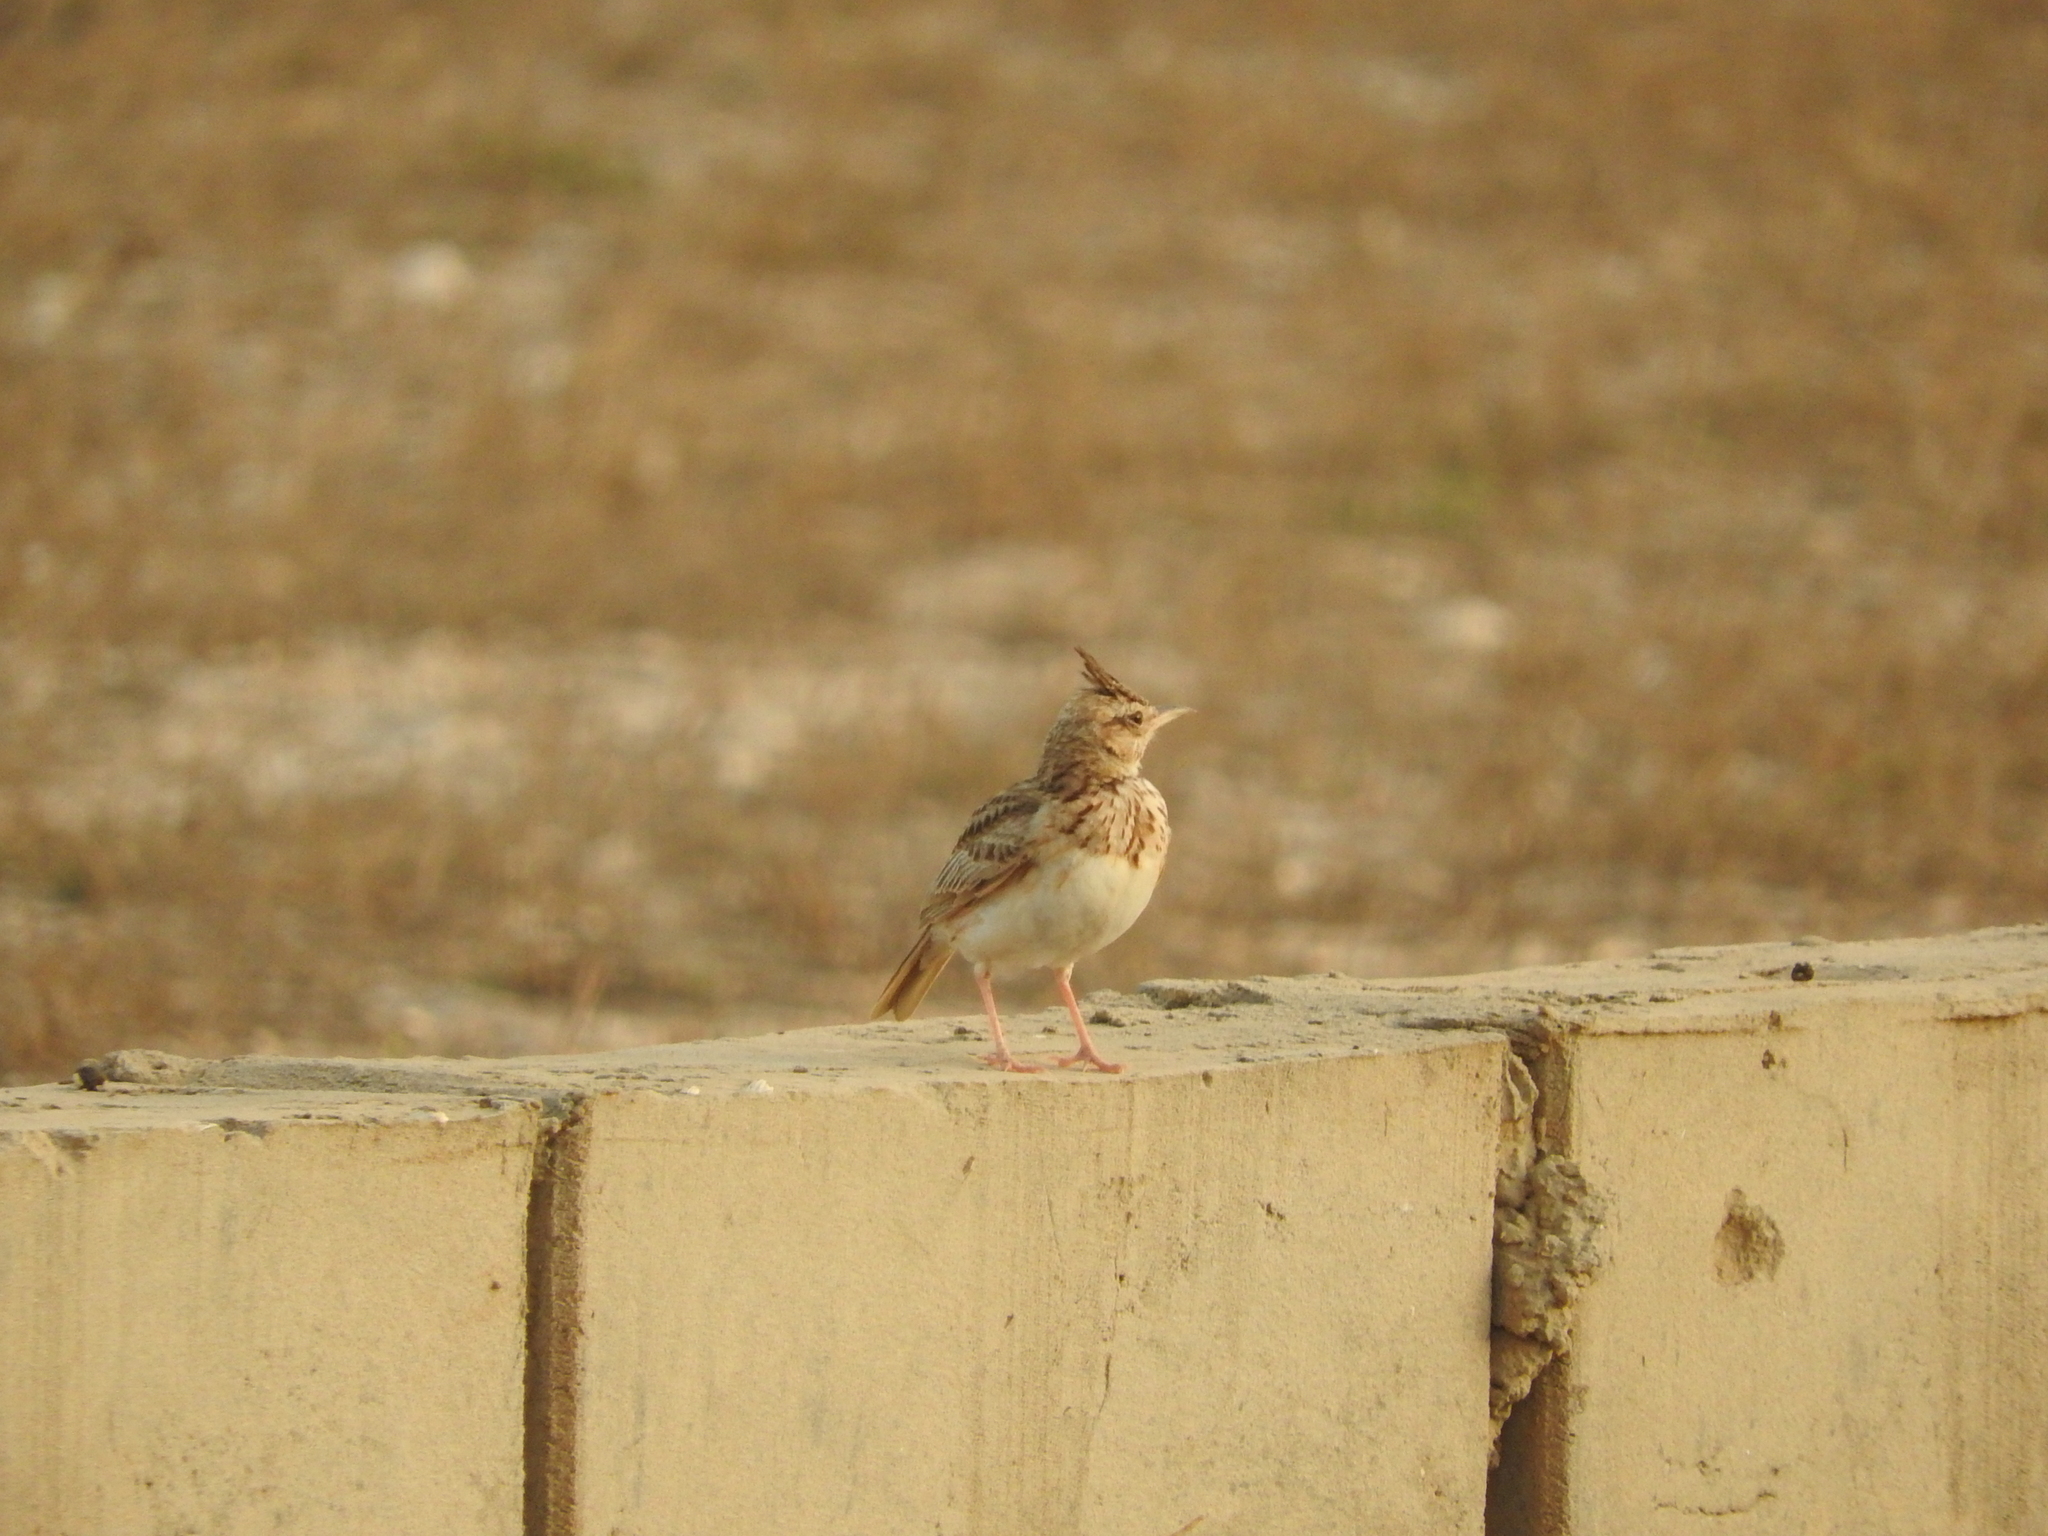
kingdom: Animalia
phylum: Chordata
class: Aves
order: Passeriformes
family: Alaudidae
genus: Galerida
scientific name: Galerida cristata
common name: Crested lark
